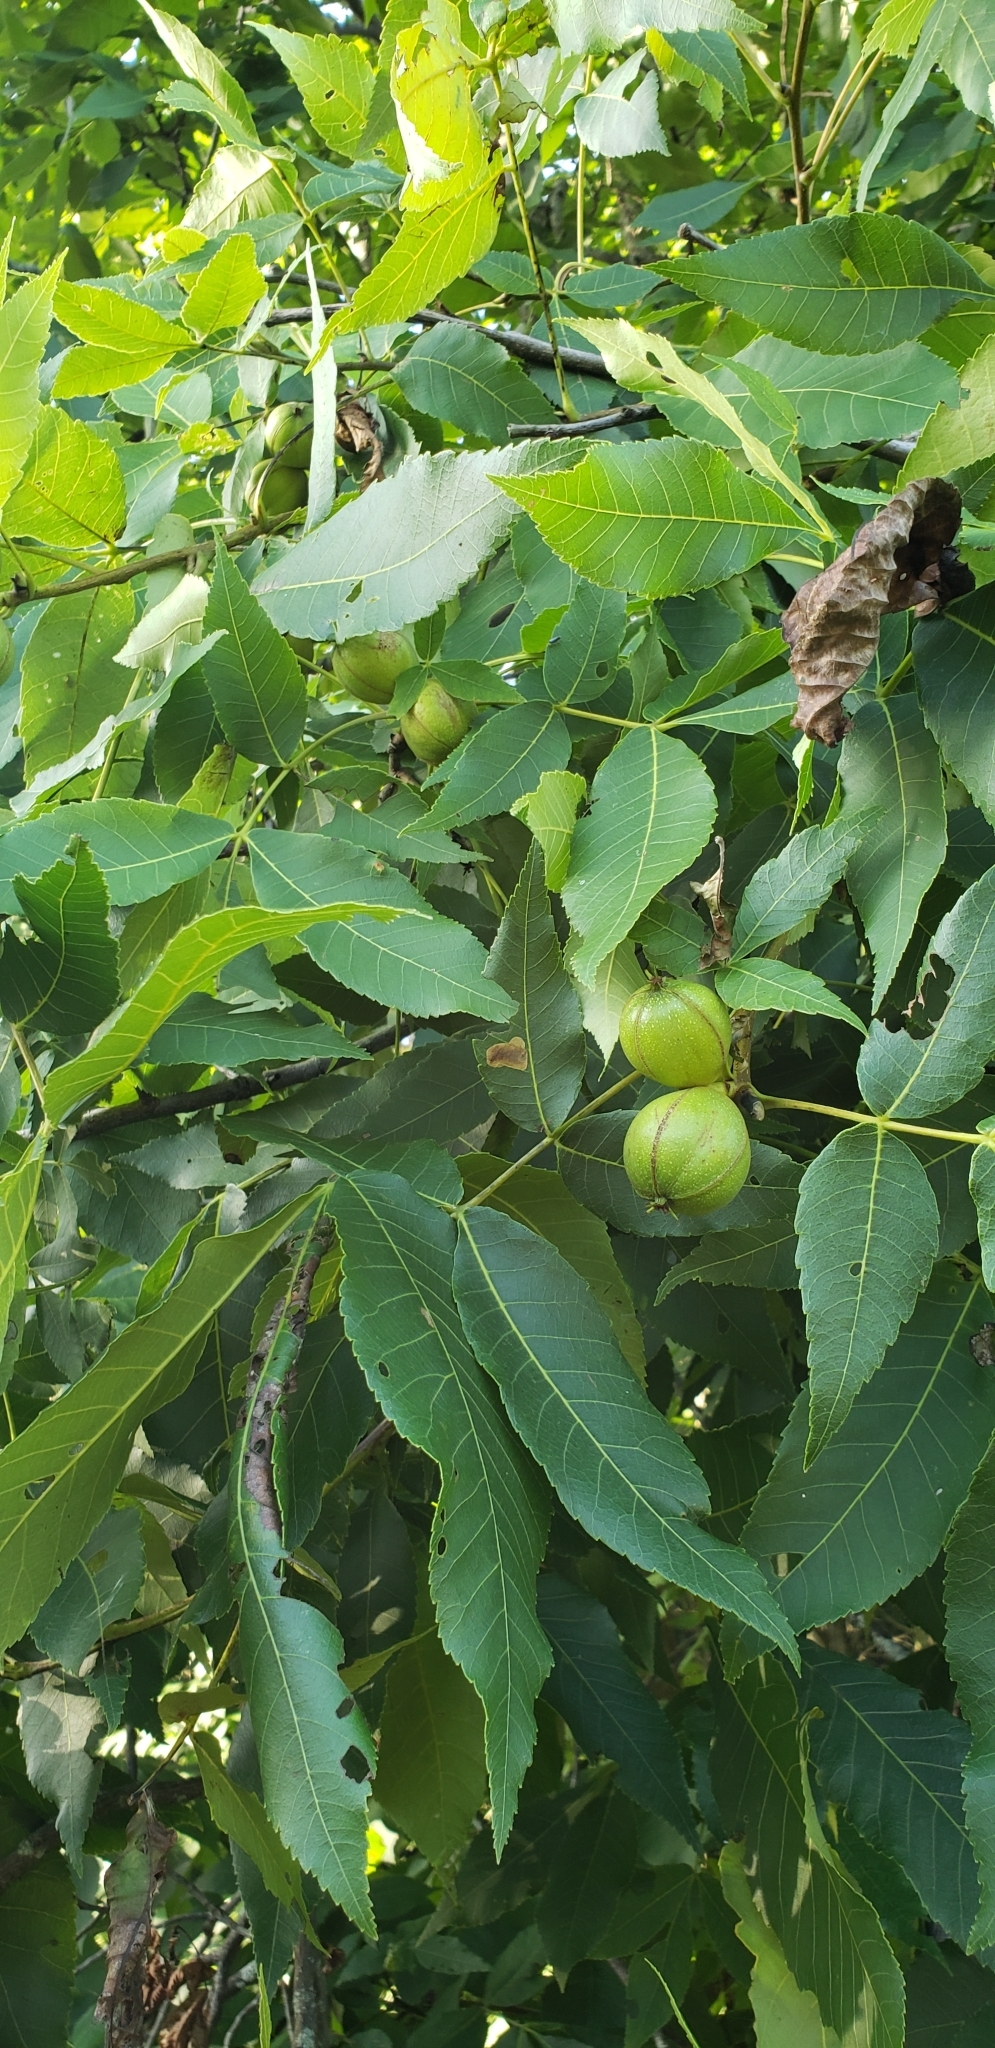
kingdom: Plantae
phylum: Tracheophyta
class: Magnoliopsida
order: Fagales
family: Juglandaceae
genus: Carya
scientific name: Carya ovata
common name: Shagbark hickory
